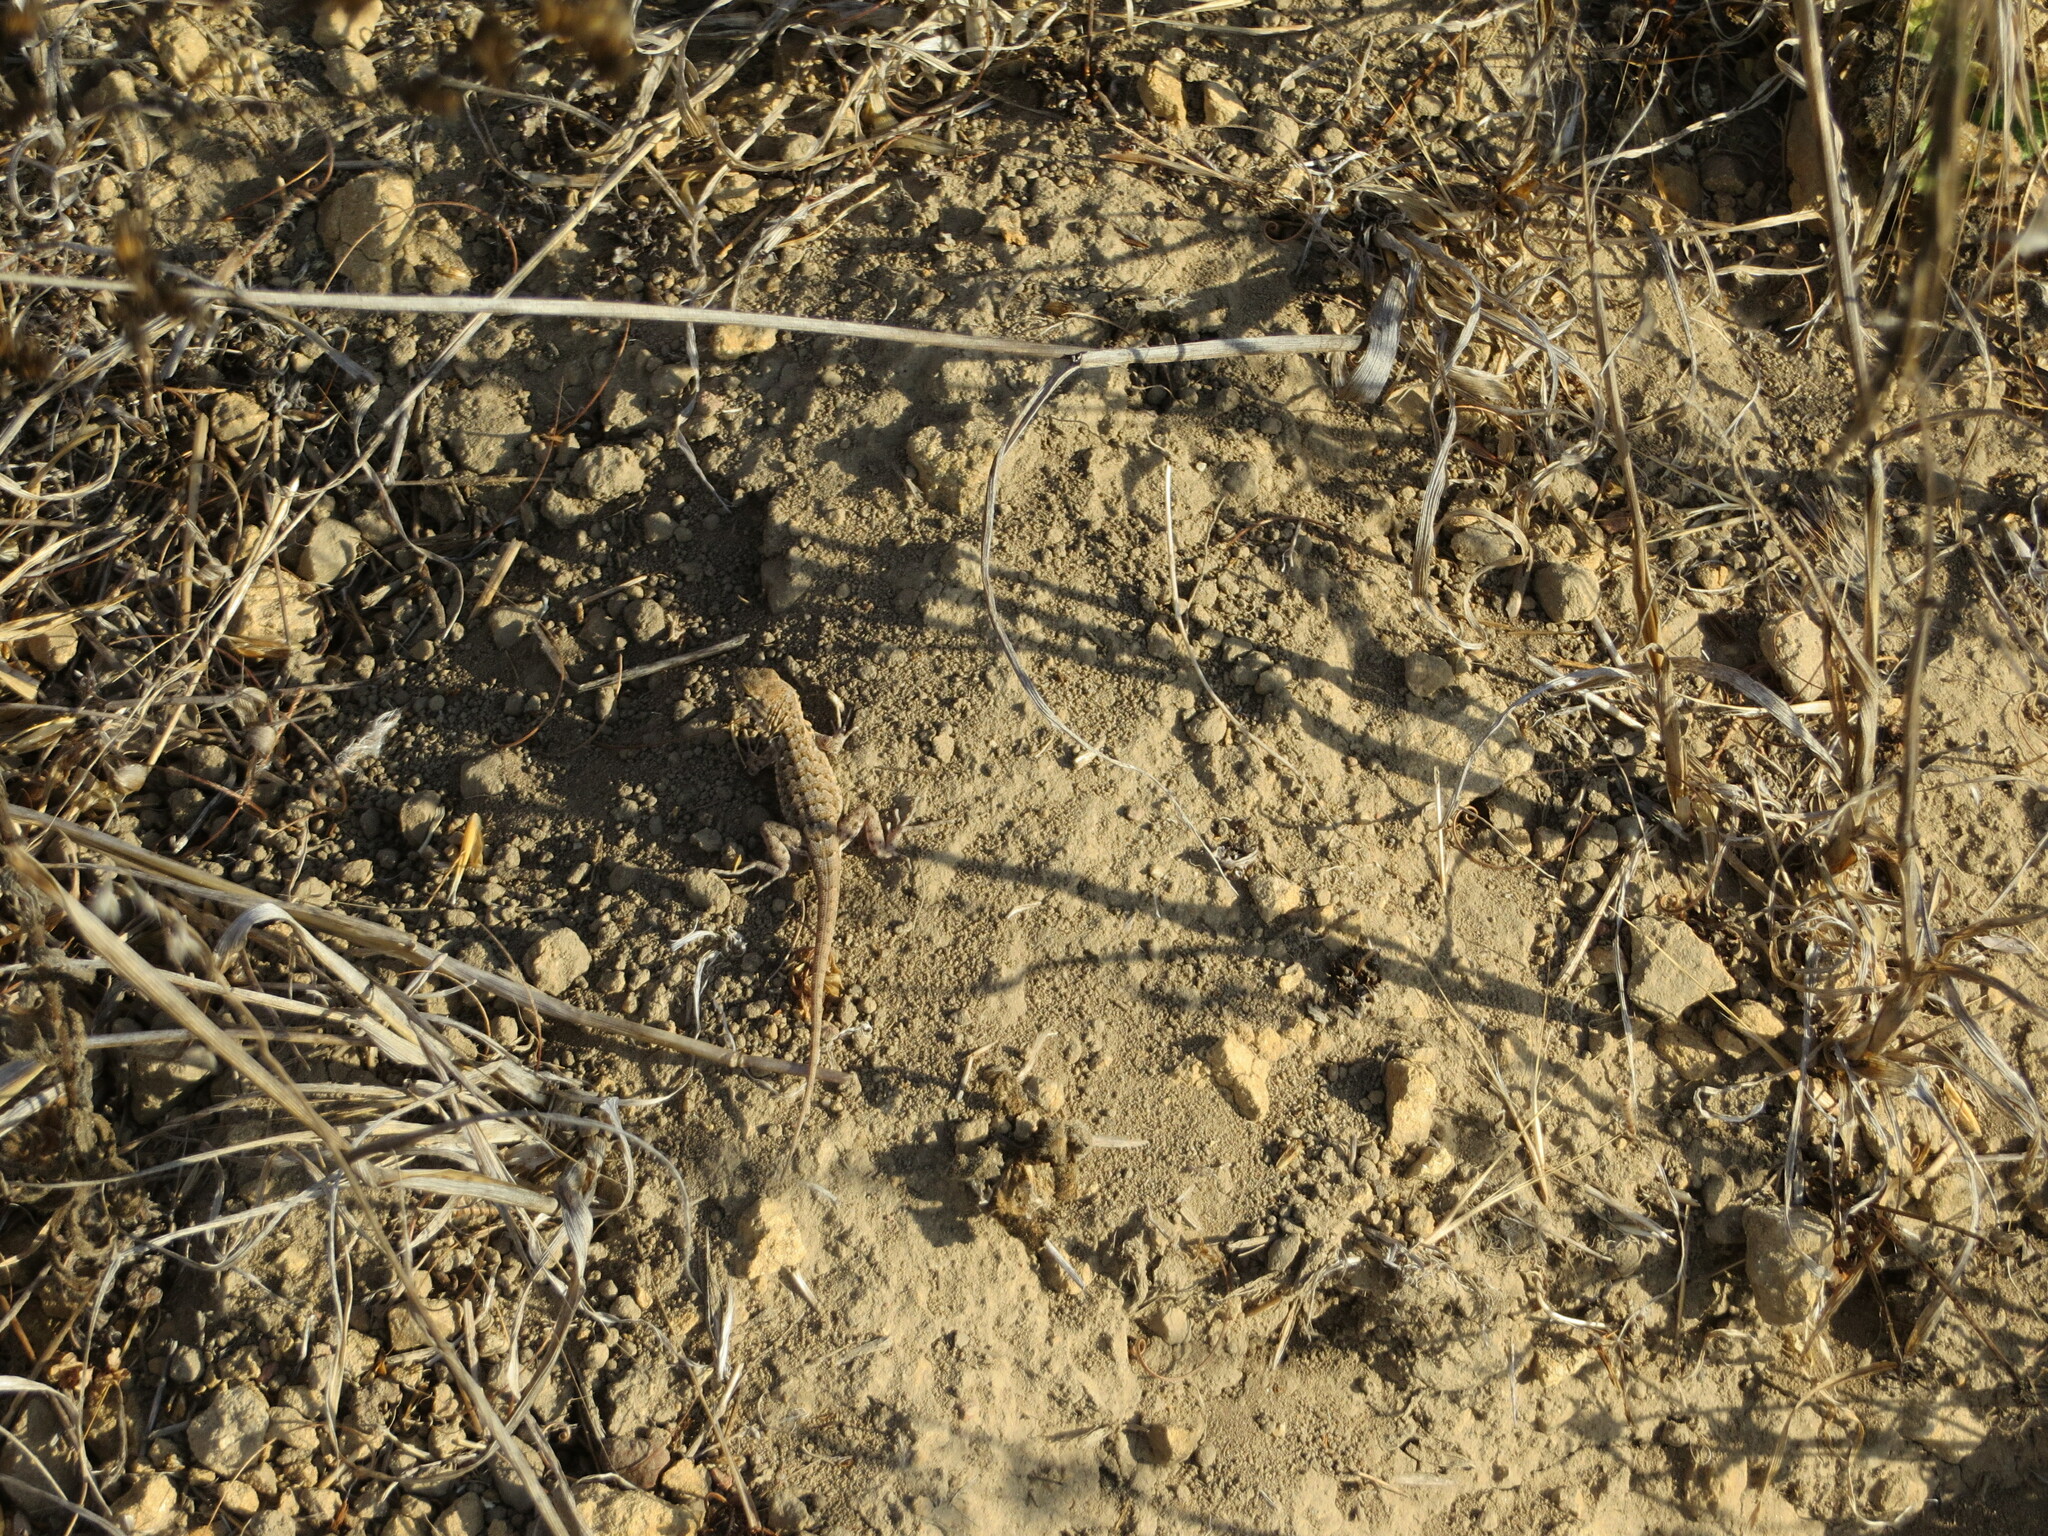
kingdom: Animalia
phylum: Chordata
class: Squamata
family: Phrynosomatidae
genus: Uta
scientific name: Uta stansburiana
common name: Side-blotched lizard
